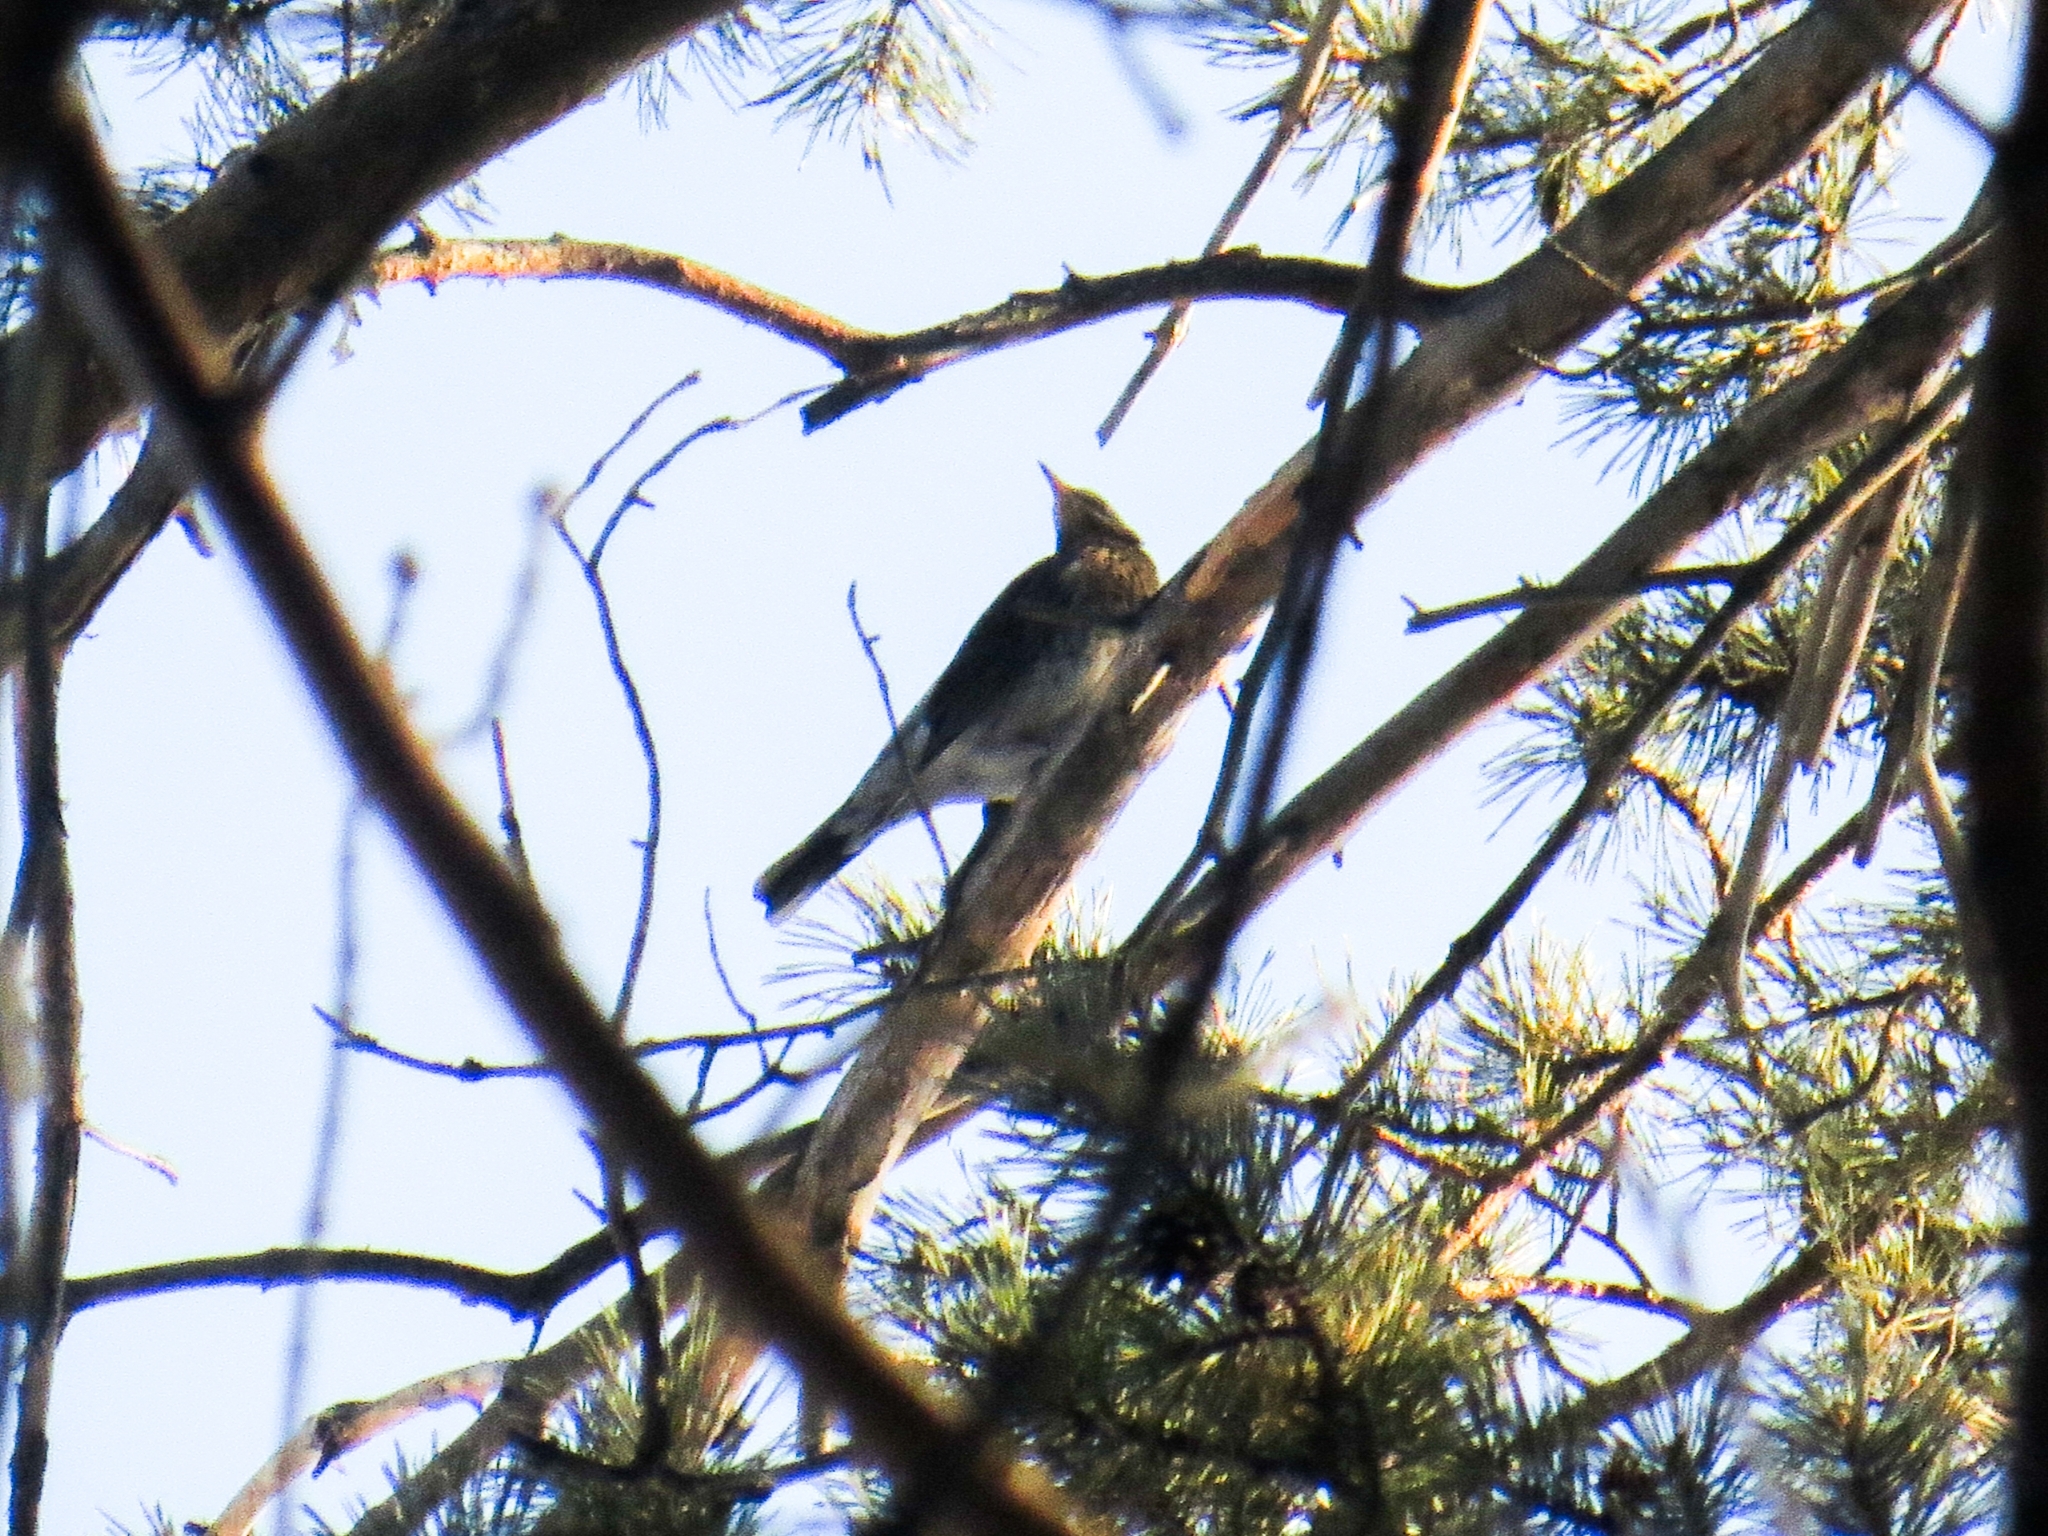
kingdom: Animalia
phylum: Chordata
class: Aves
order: Passeriformes
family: Turdidae
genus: Turdus
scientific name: Turdus pilaris
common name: Fieldfare
